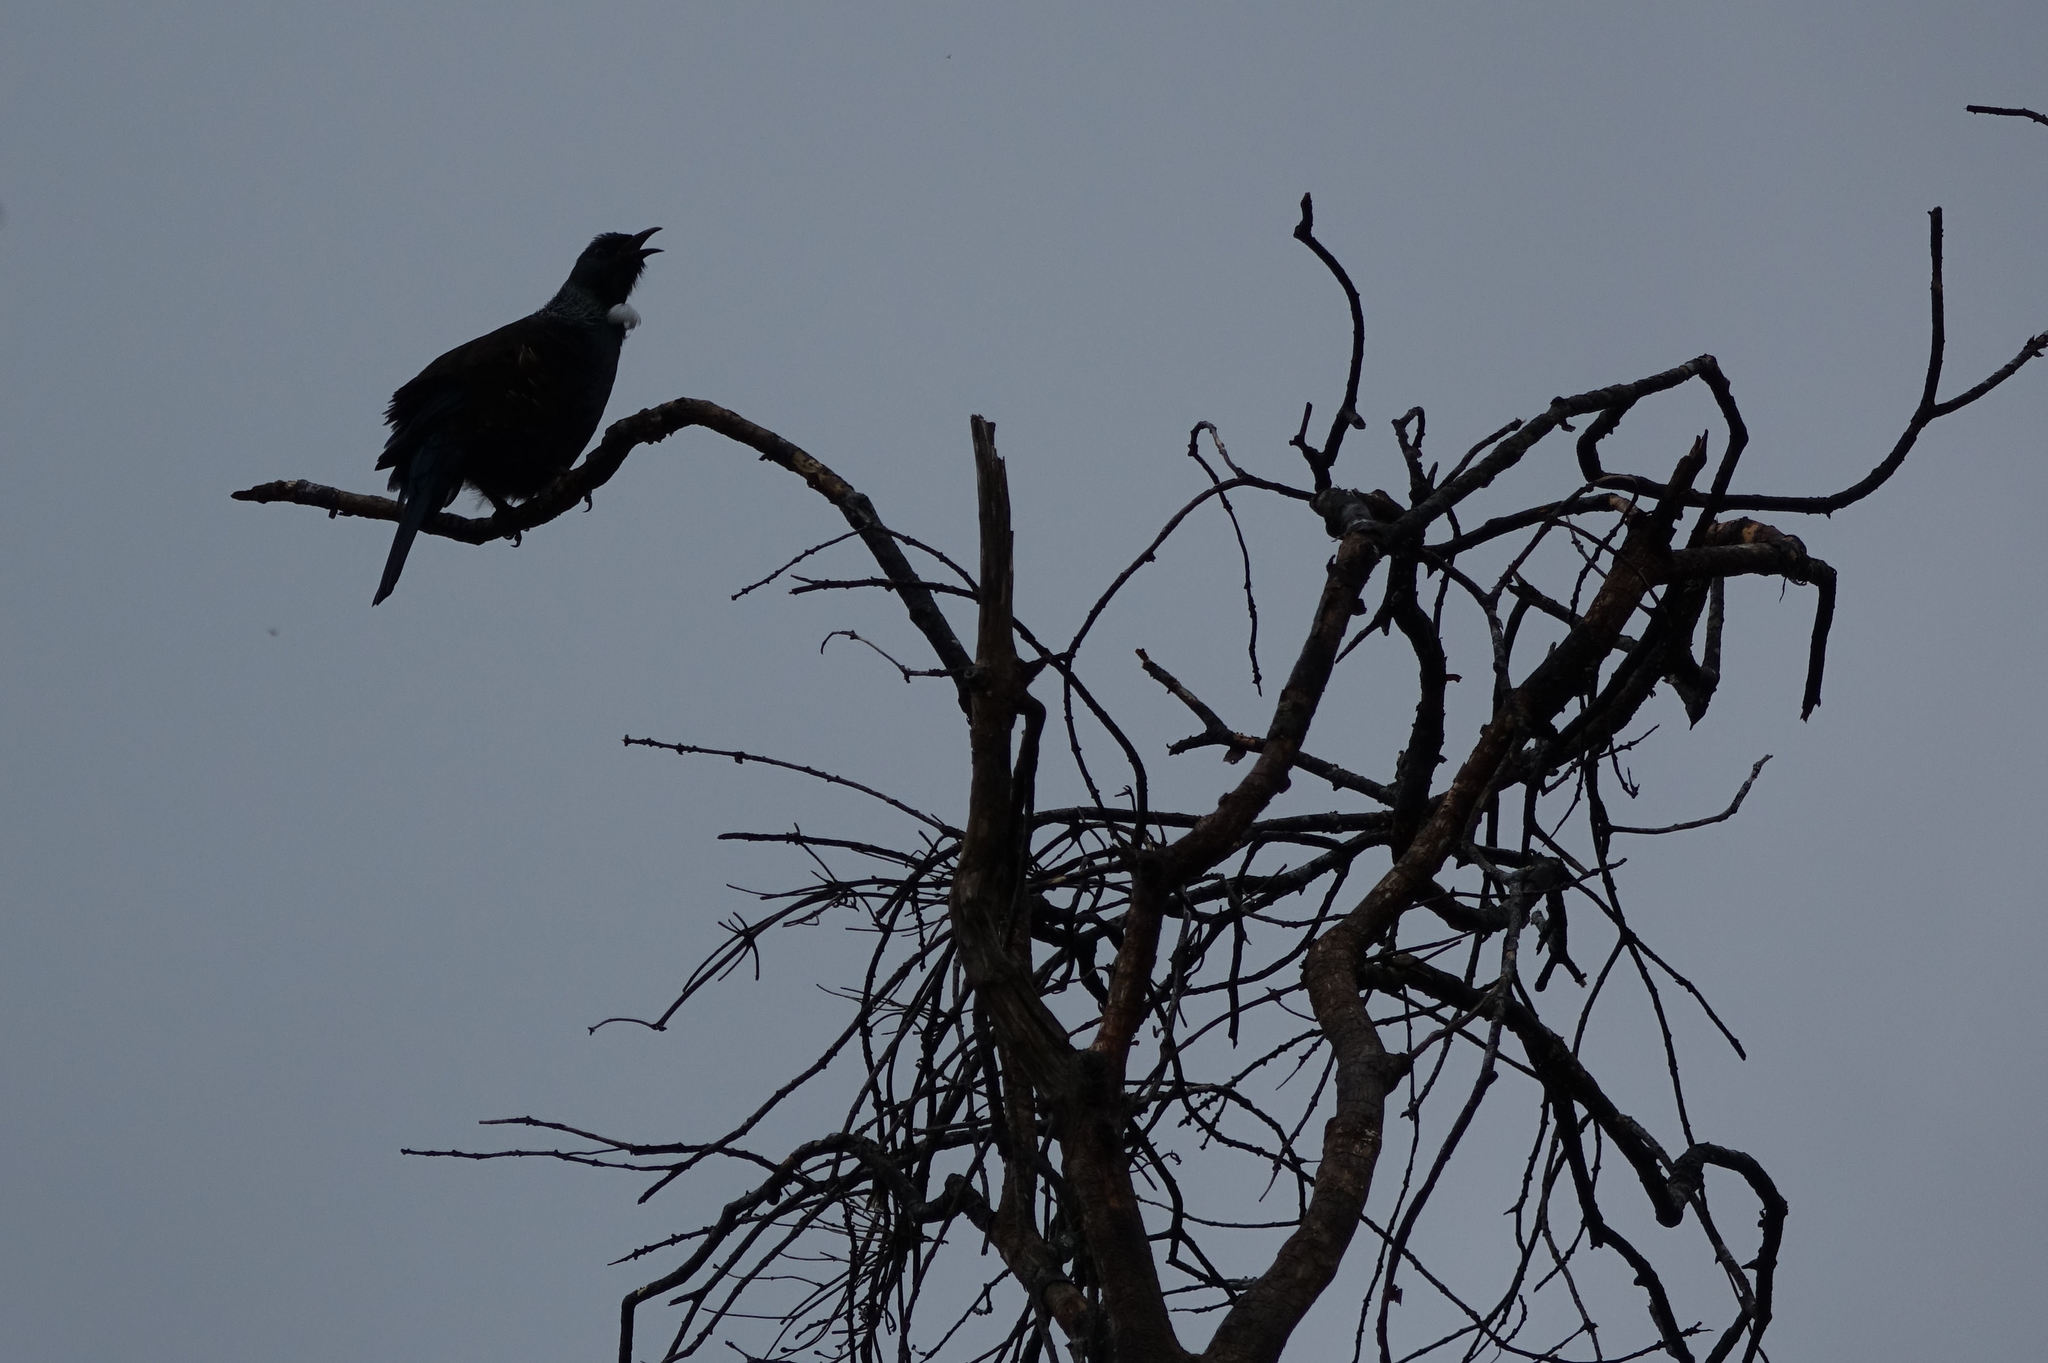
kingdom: Animalia
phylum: Chordata
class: Aves
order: Passeriformes
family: Meliphagidae
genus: Prosthemadera
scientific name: Prosthemadera novaeseelandiae
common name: Tui
